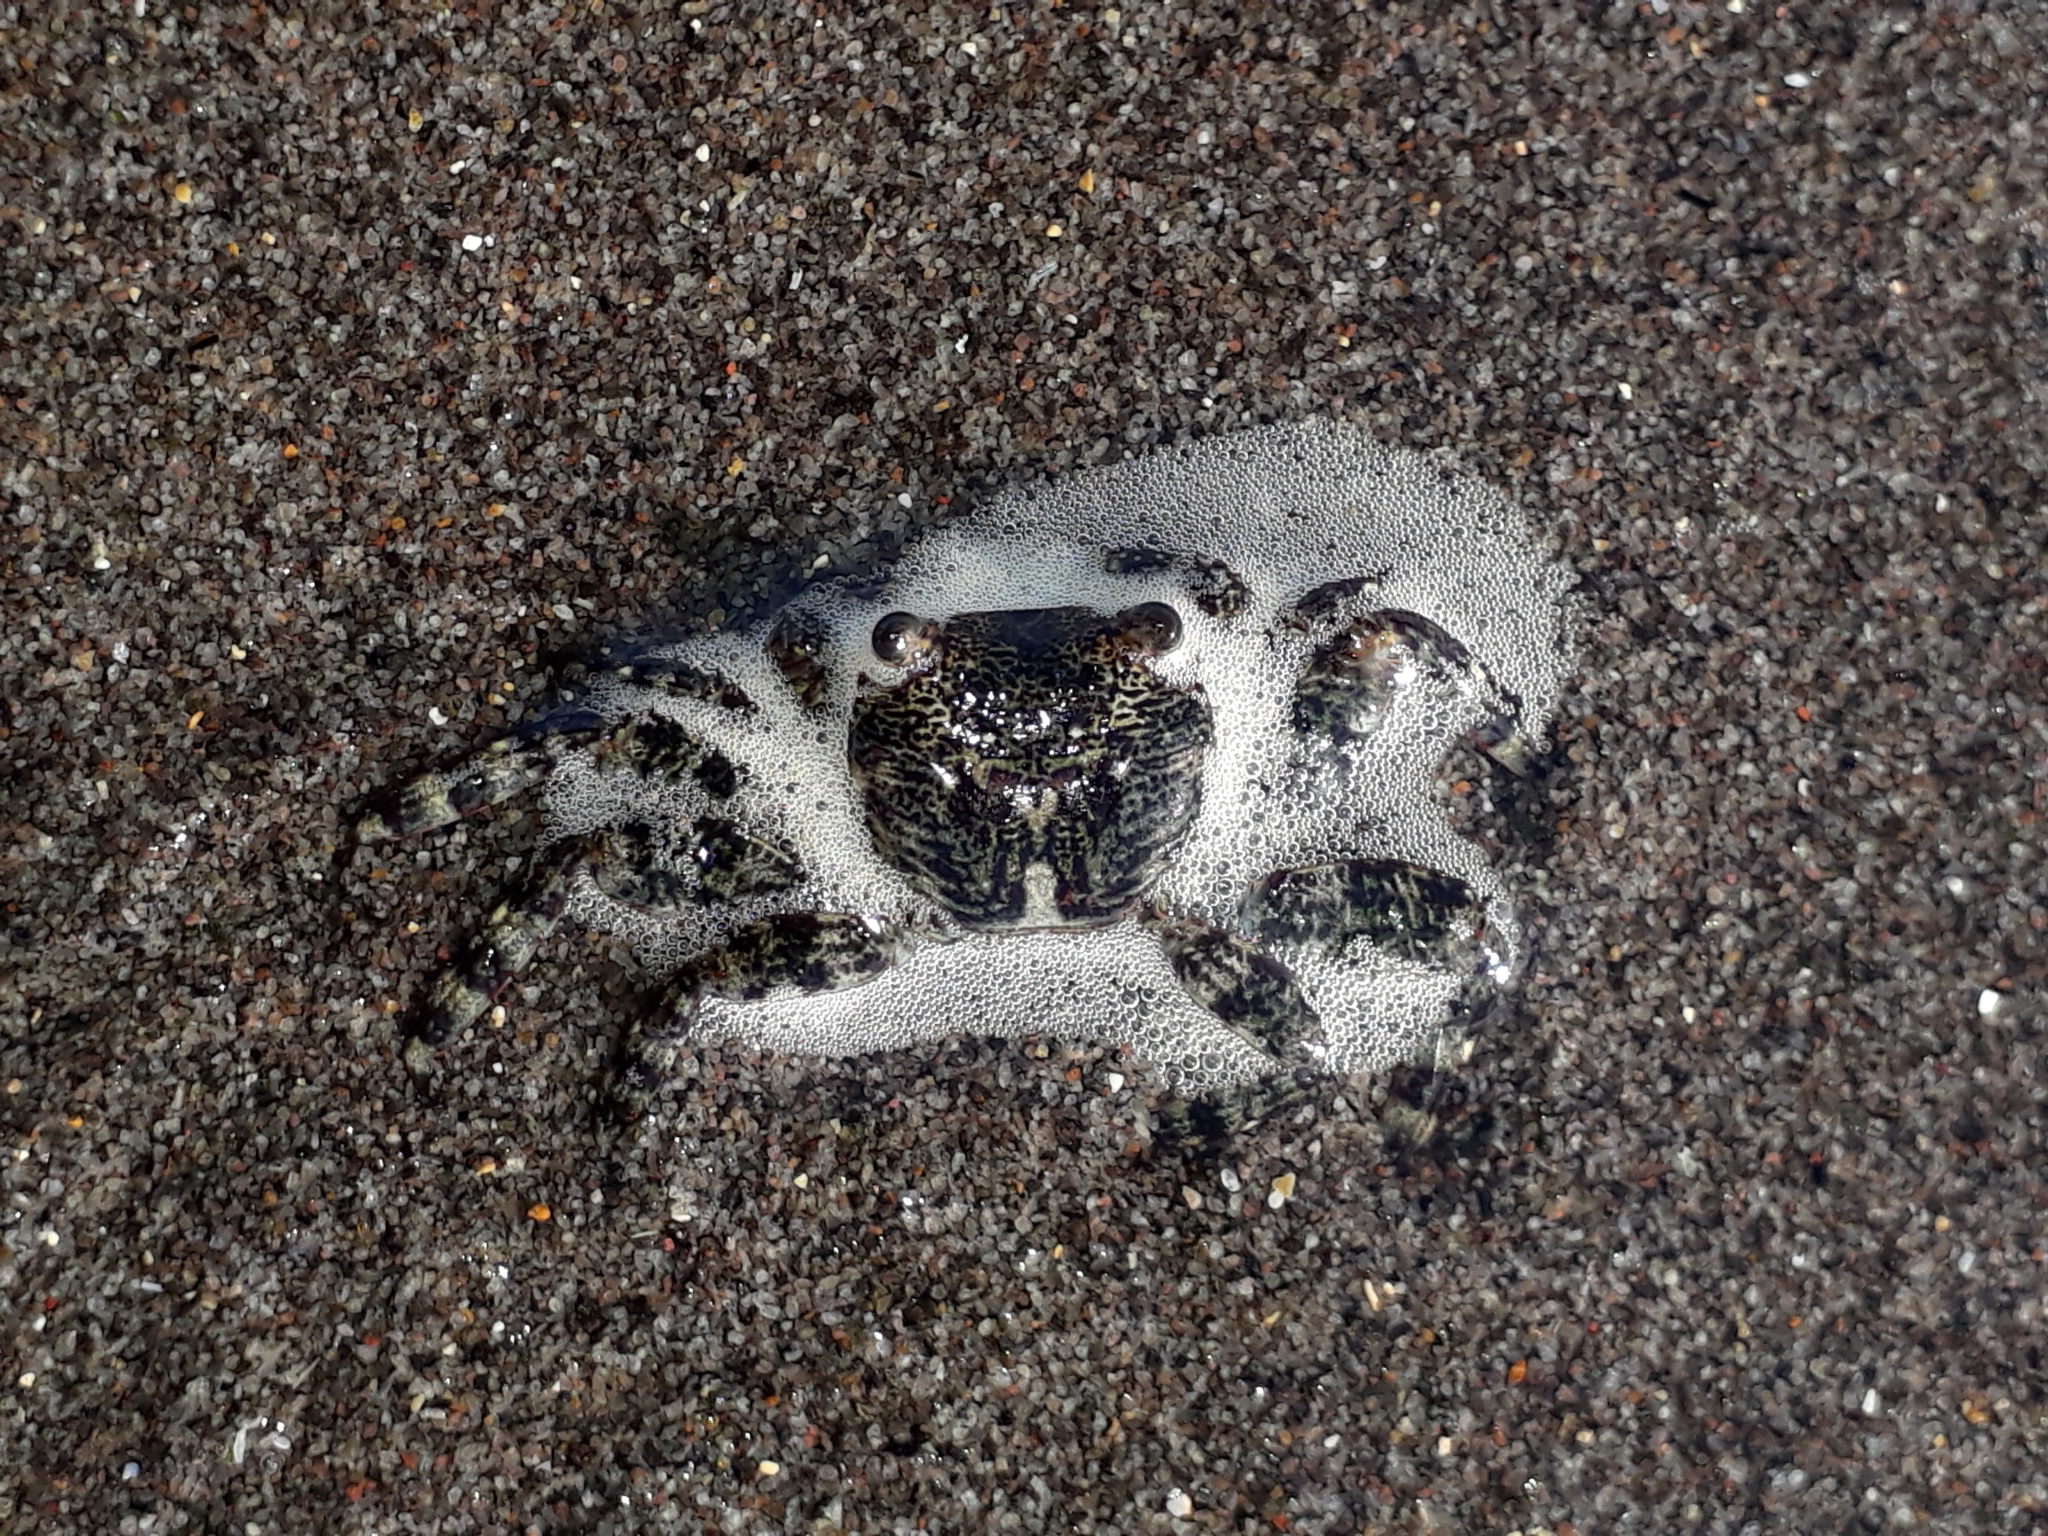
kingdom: Animalia
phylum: Arthropoda
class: Malacostraca
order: Decapoda
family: Grapsidae
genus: Leptograpsus
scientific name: Leptograpsus variegatus
